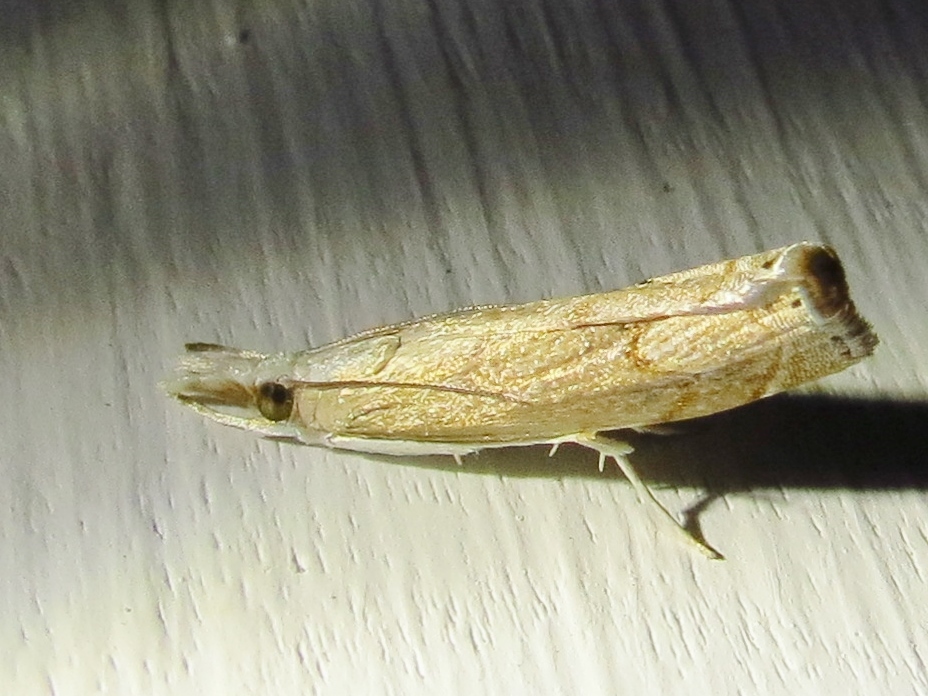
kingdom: Animalia
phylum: Arthropoda
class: Insecta
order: Lepidoptera
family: Crambidae
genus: Parapediasia
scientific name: Parapediasia decorellus
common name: Graceful grass-veneer
